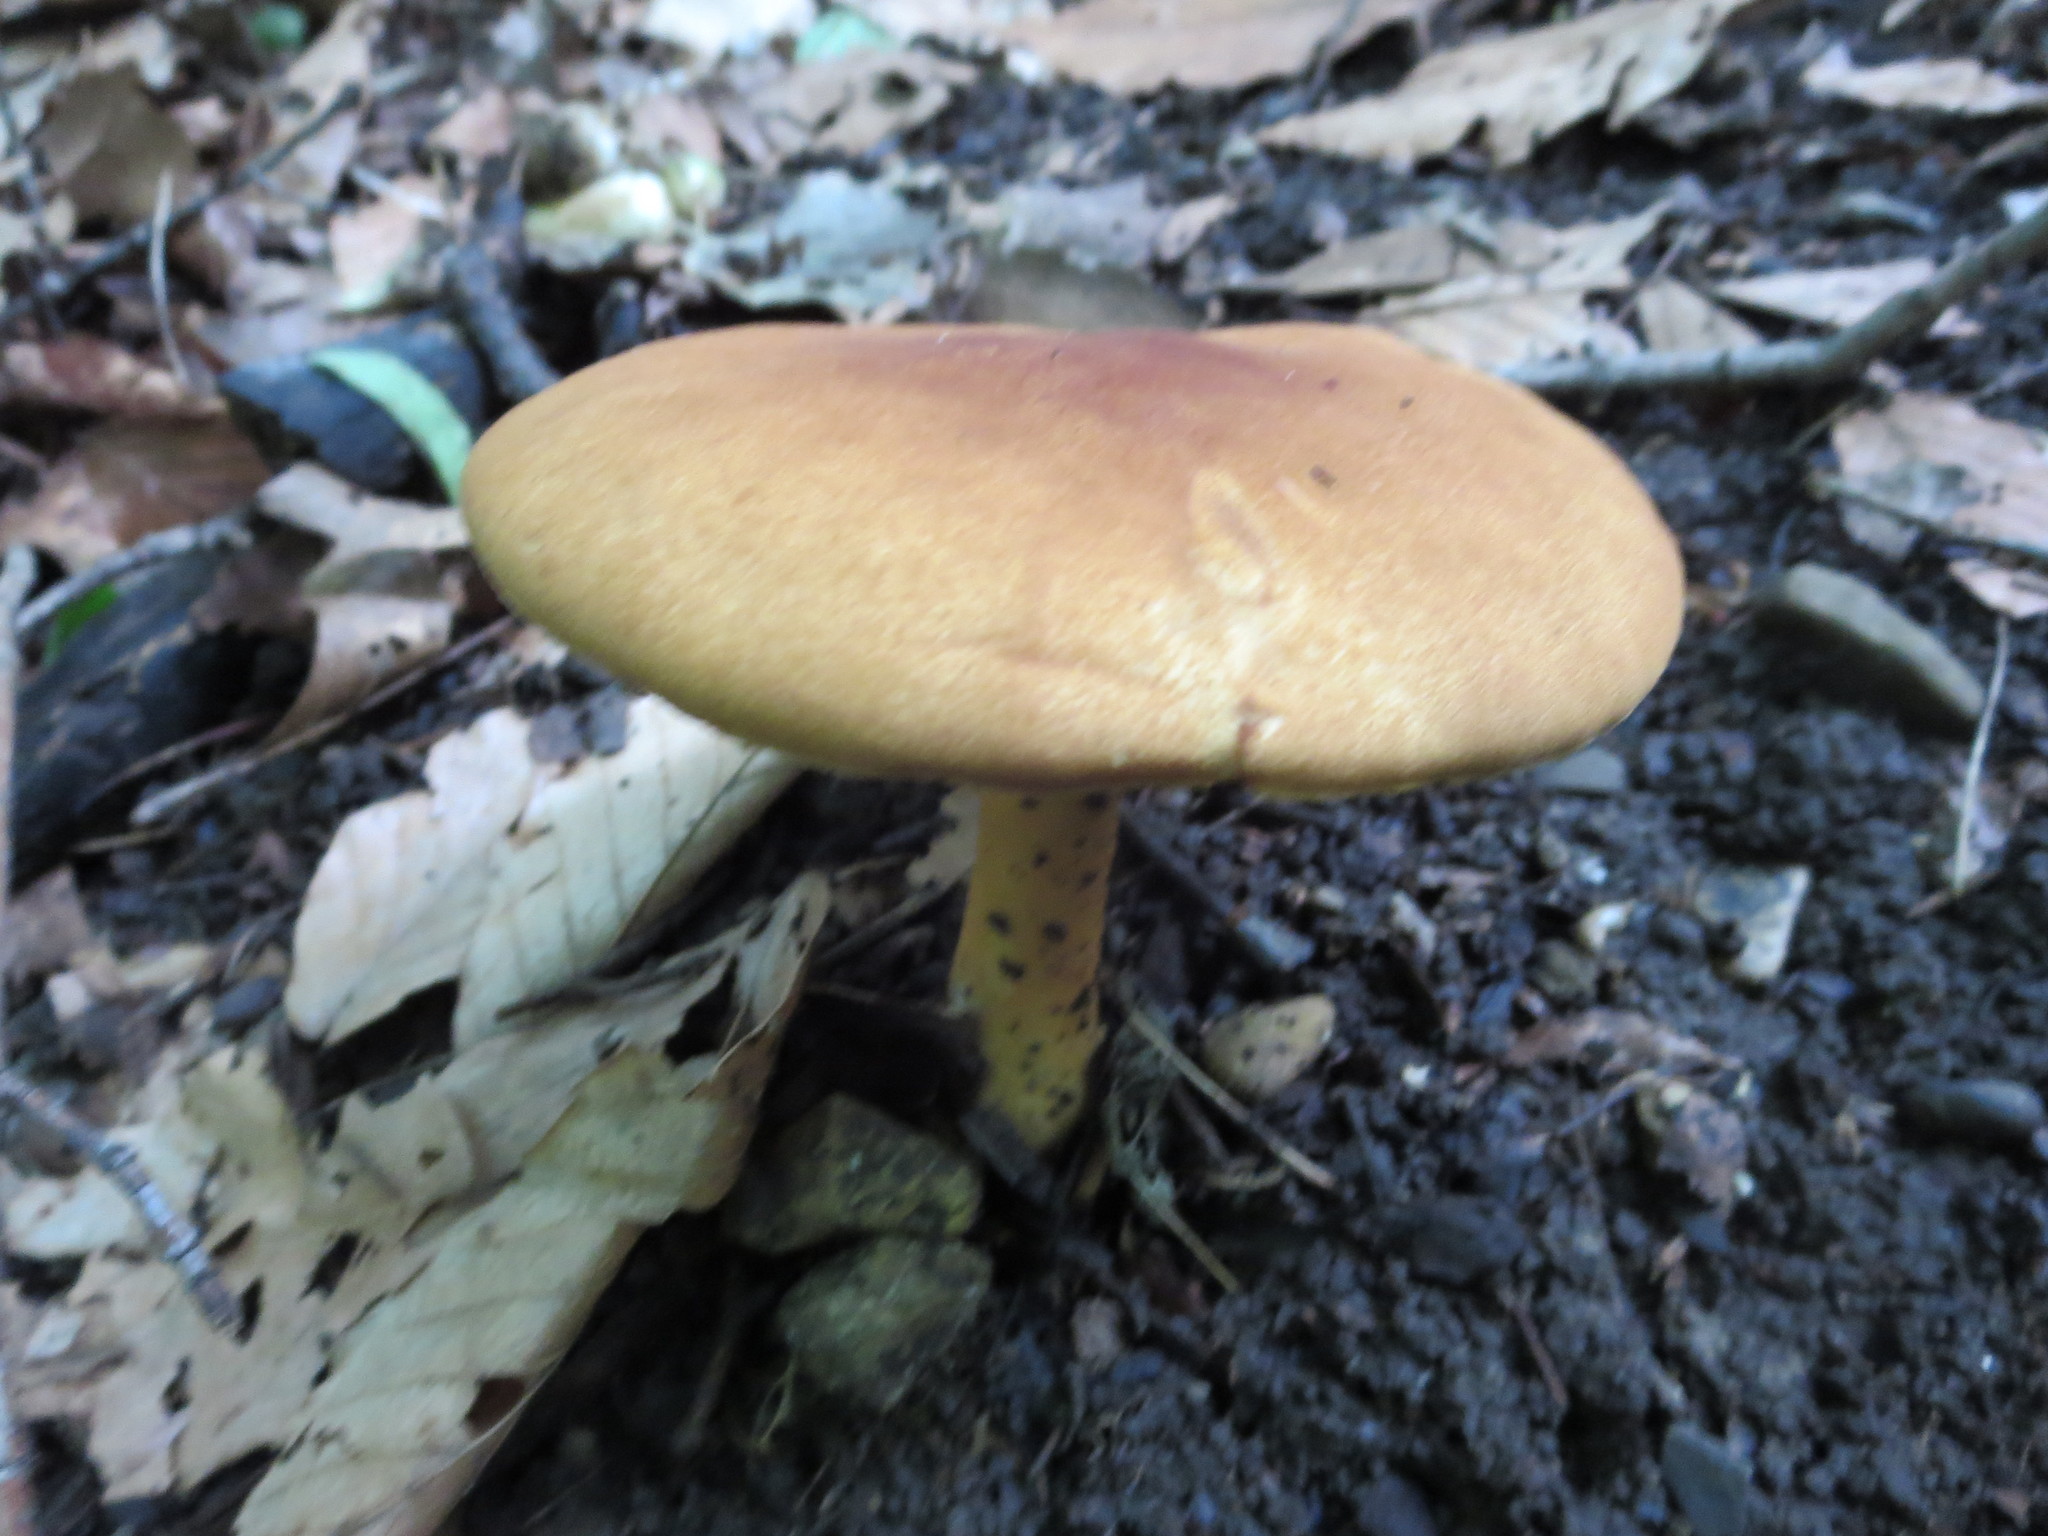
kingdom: Fungi
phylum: Basidiomycota
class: Agaricomycetes
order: Polyporales
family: Polyporaceae
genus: Polyporus
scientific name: Polyporus radicatus
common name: Rooting polypore
